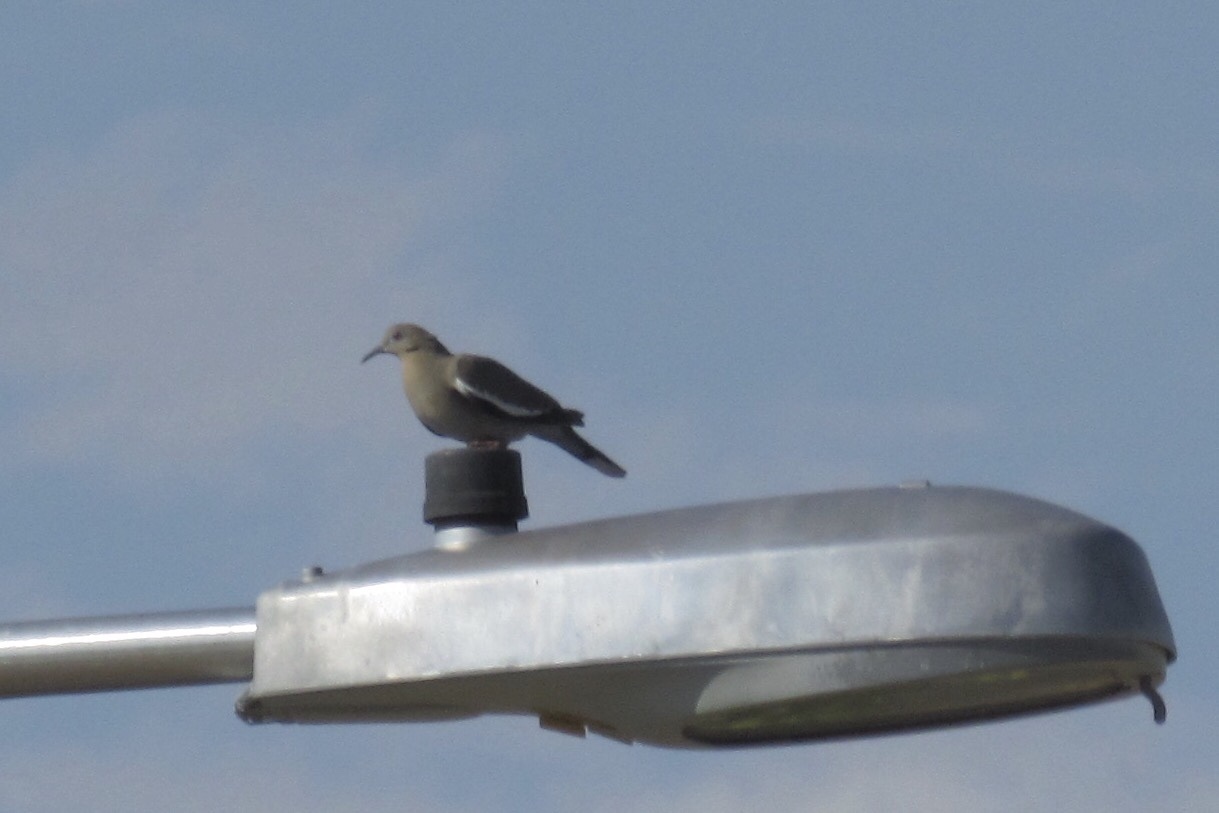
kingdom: Animalia
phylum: Chordata
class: Aves
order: Columbiformes
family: Columbidae
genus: Zenaida
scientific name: Zenaida asiatica
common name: White-winged dove
